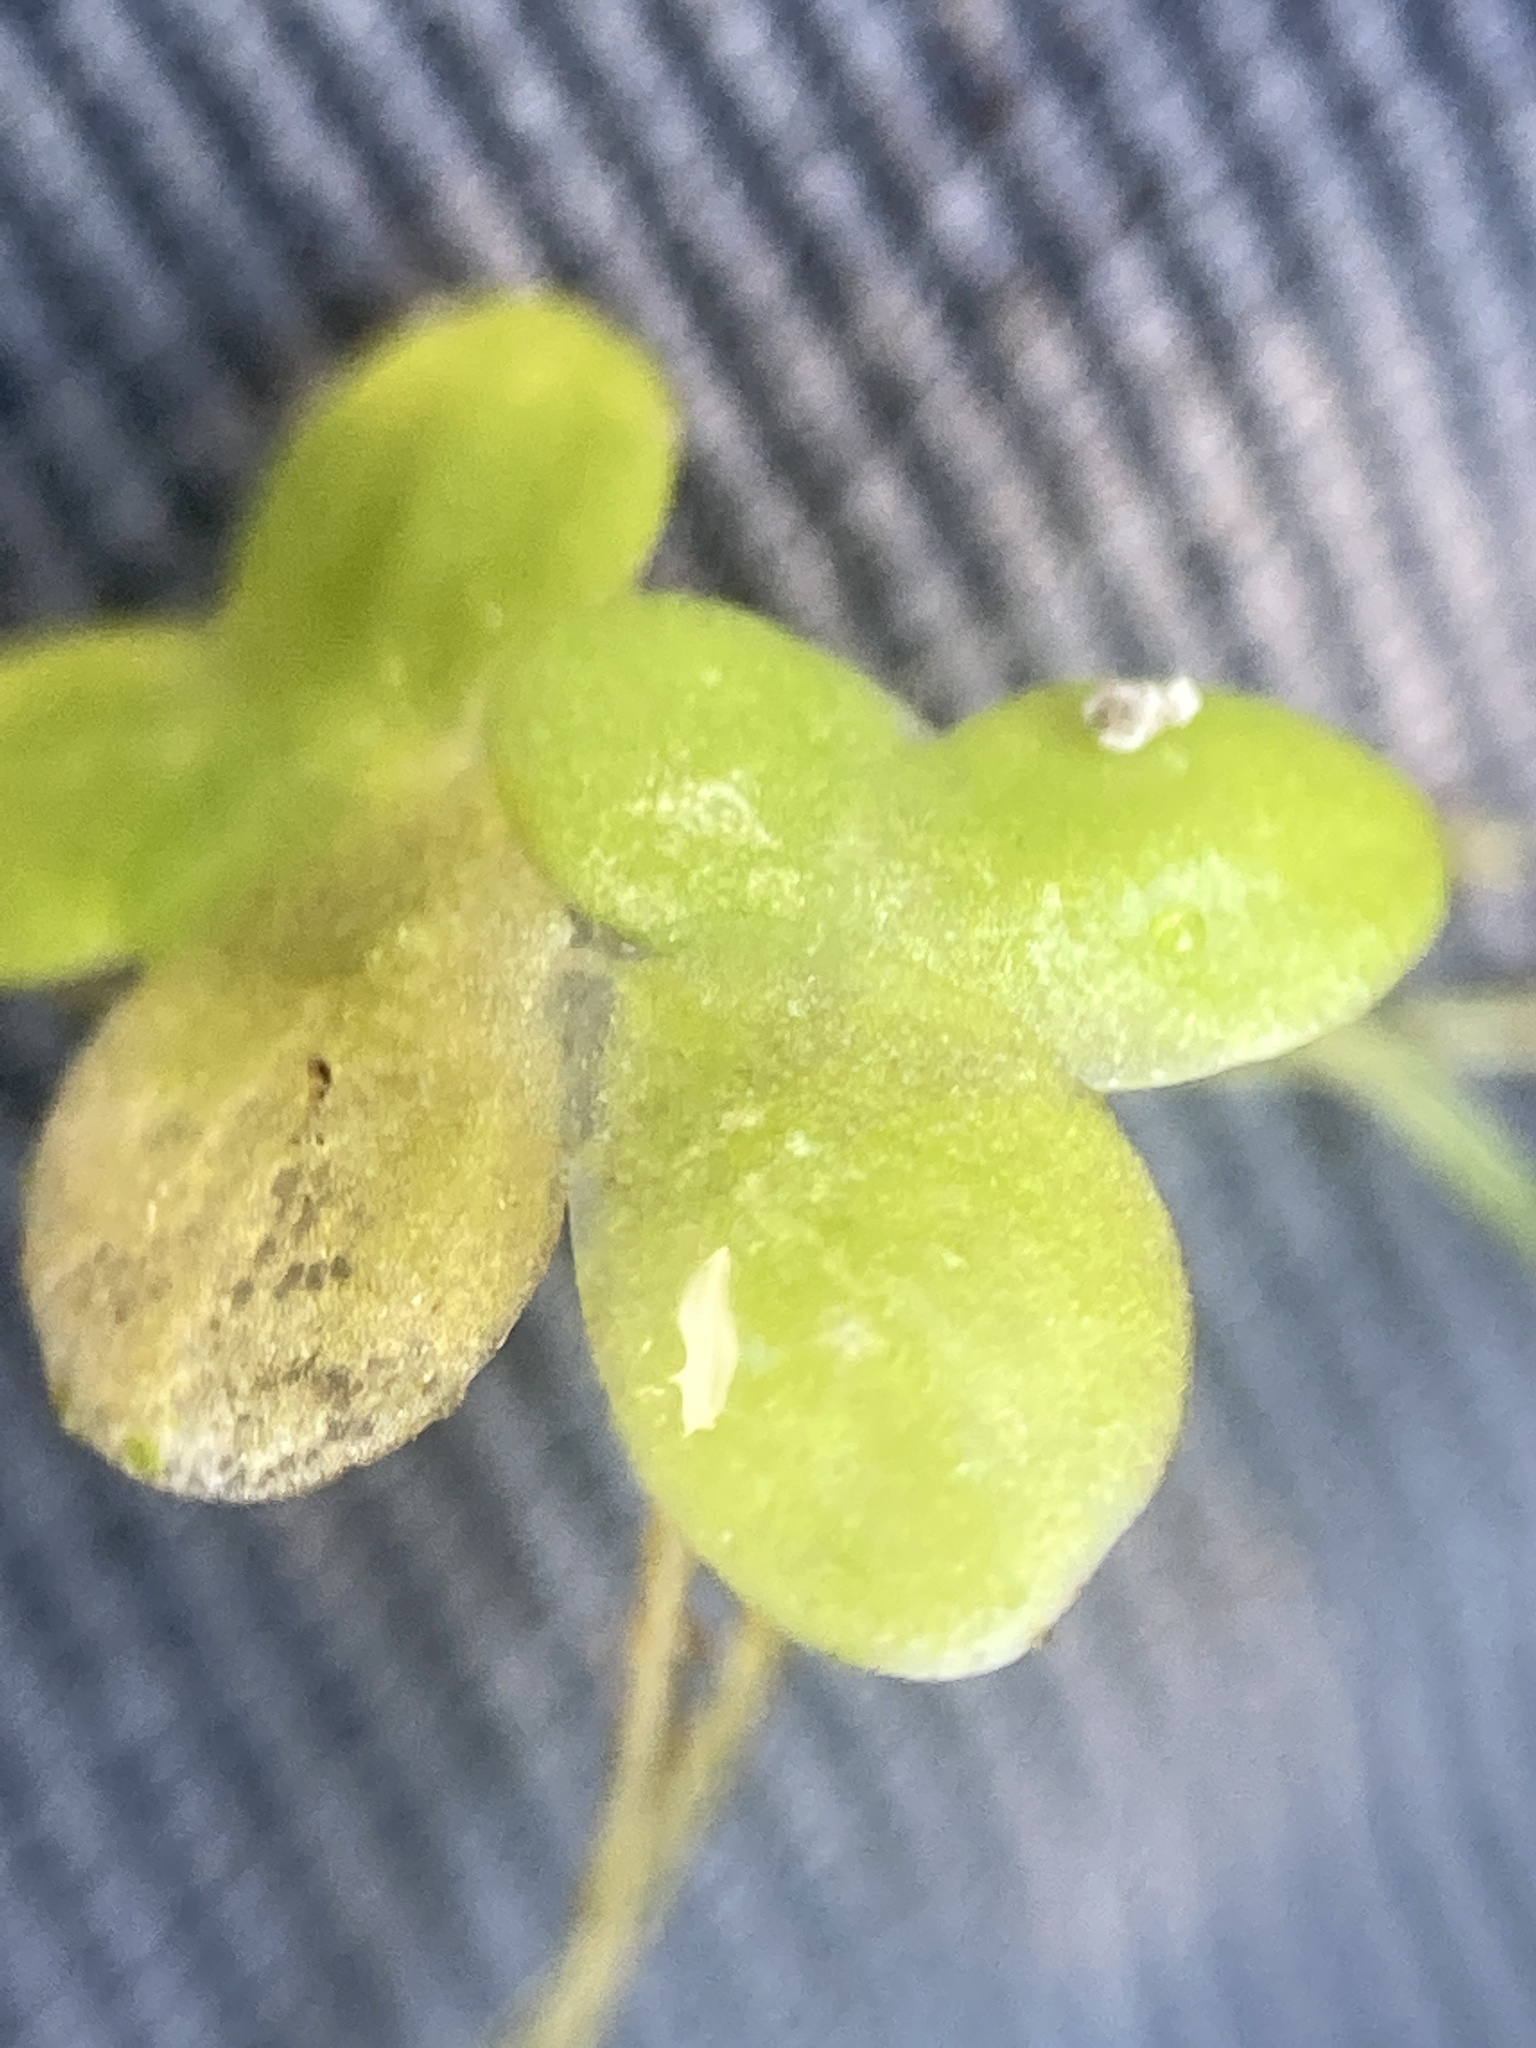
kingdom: Plantae
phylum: Tracheophyta
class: Liliopsida
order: Alismatales
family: Araceae
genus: Lemna
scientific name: Lemna turionifera
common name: Perennial duckweed
